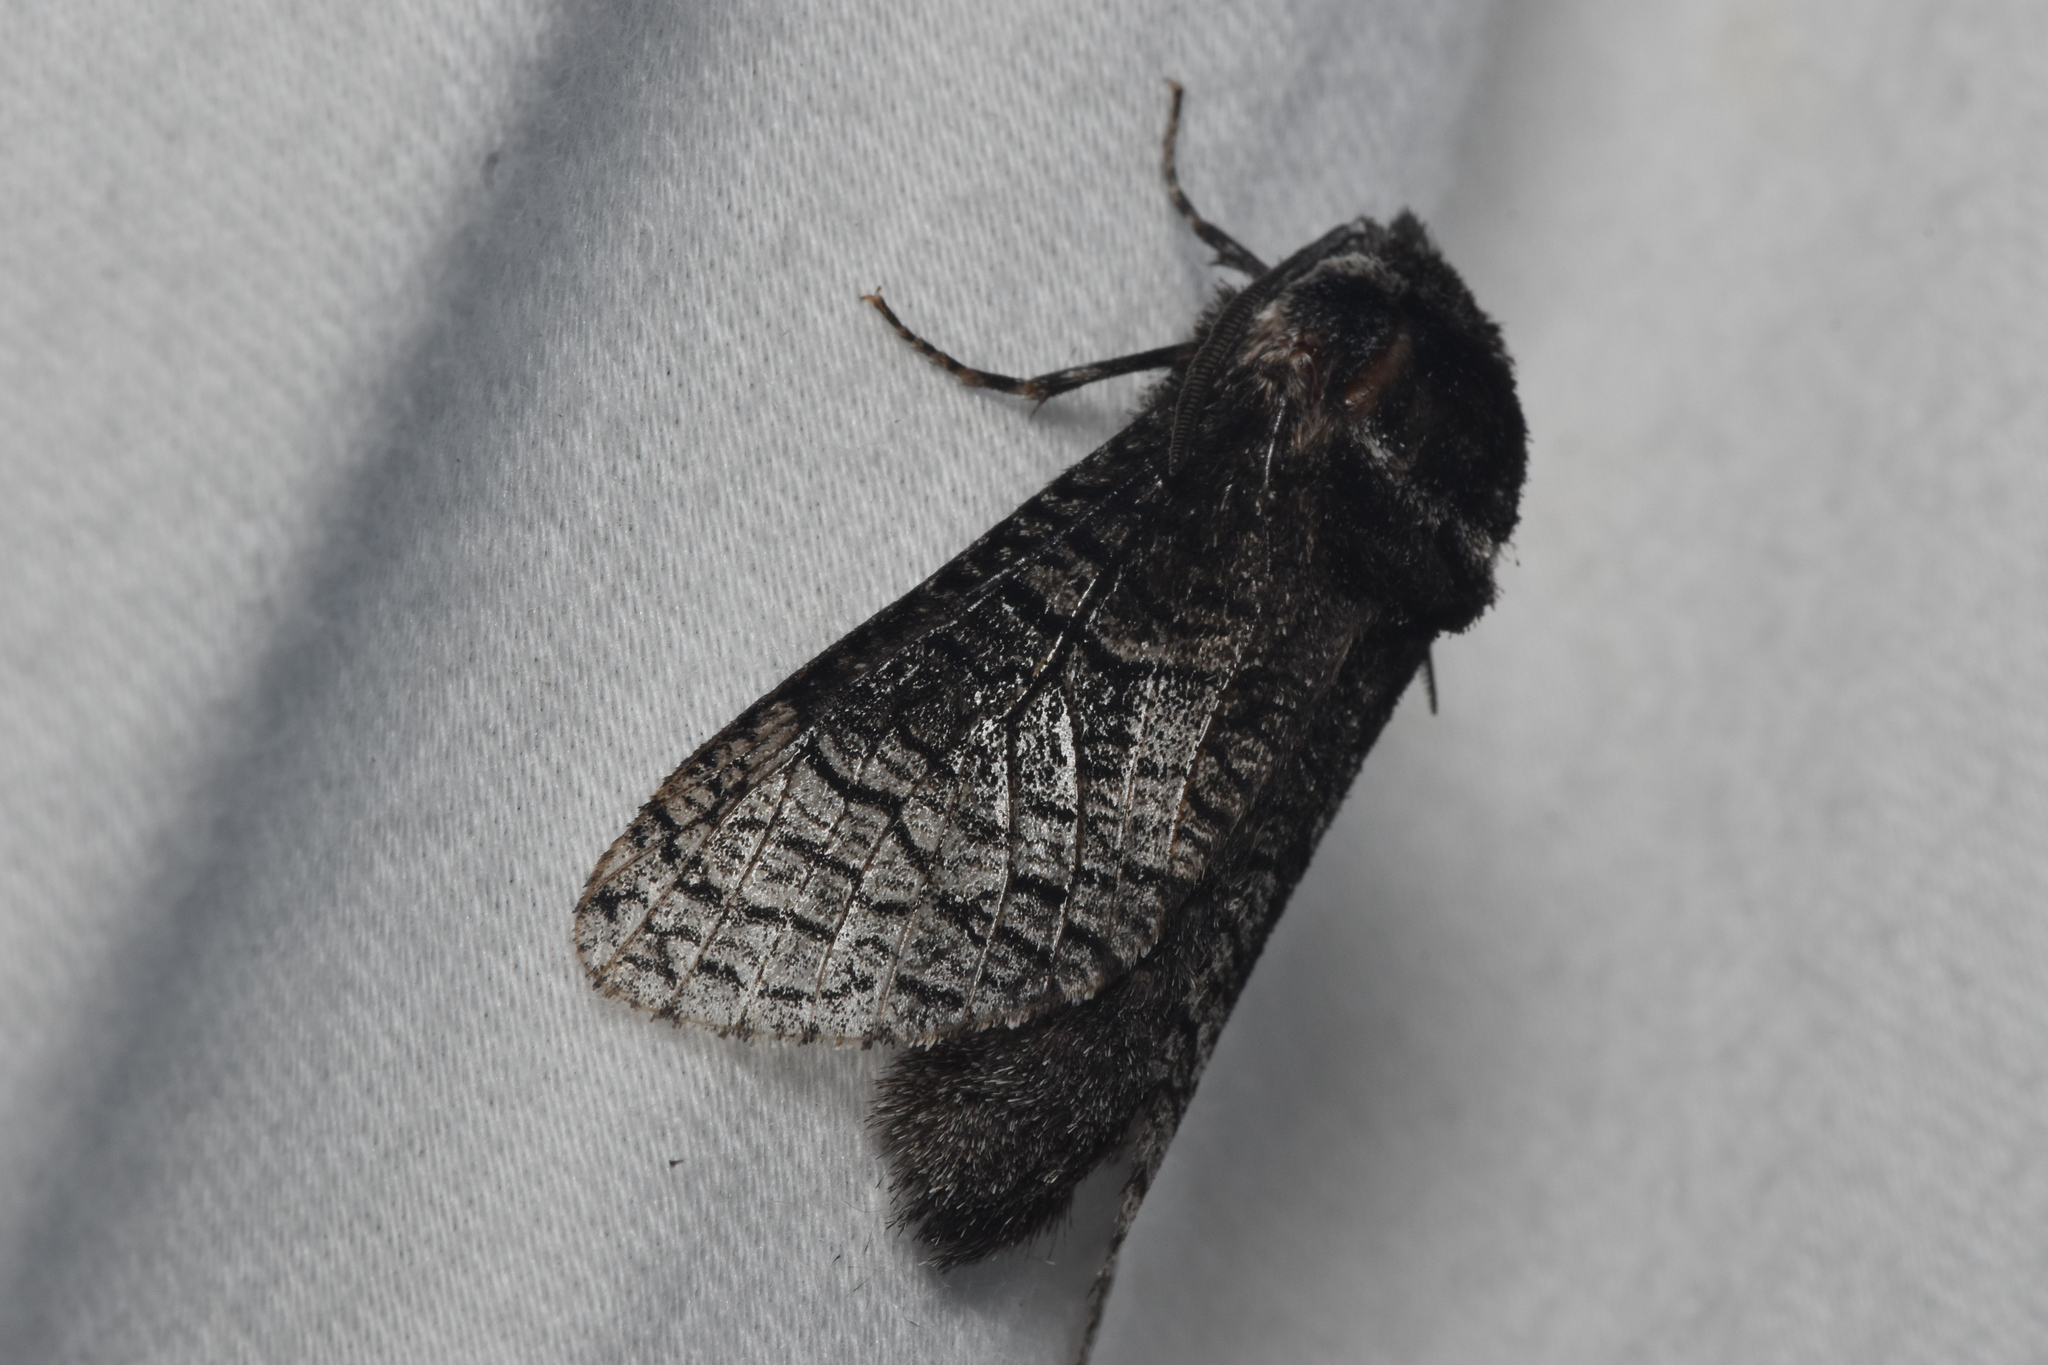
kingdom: Animalia
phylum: Arthropoda
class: Insecta
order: Lepidoptera
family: Cossidae
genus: Acossus
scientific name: Acossus centerensis
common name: Poplar carpenterworm moth
